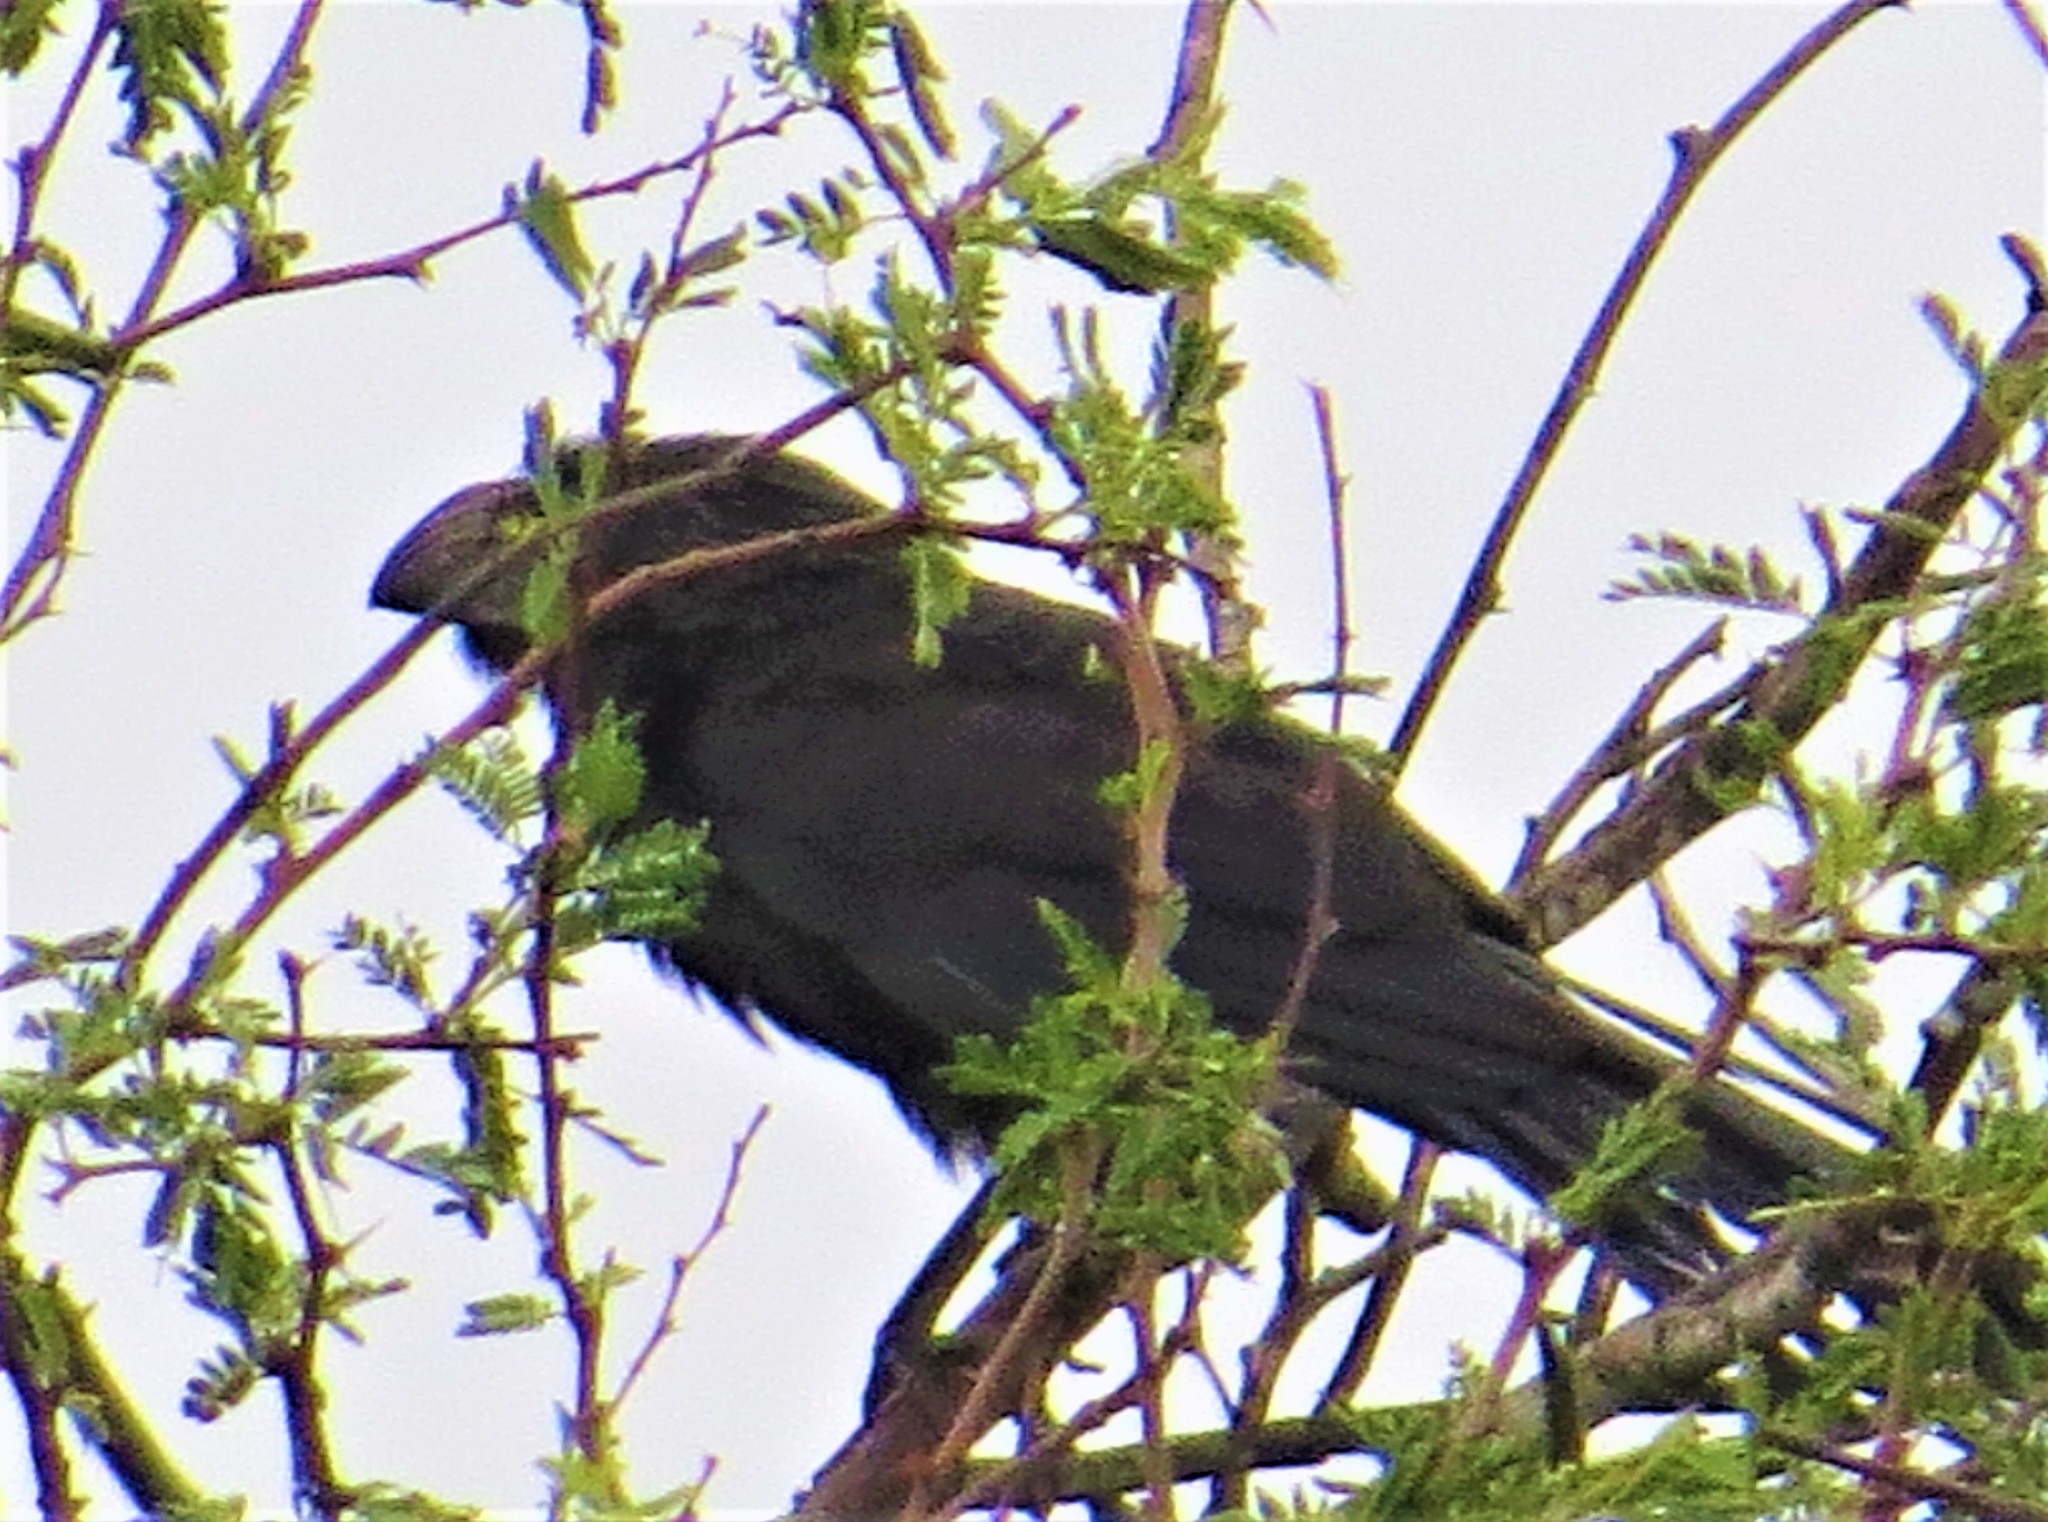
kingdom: Animalia
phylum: Chordata
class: Aves
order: Cuculiformes
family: Cuculidae
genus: Crotophaga
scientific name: Crotophaga sulcirostris
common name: Groove-billed ani
